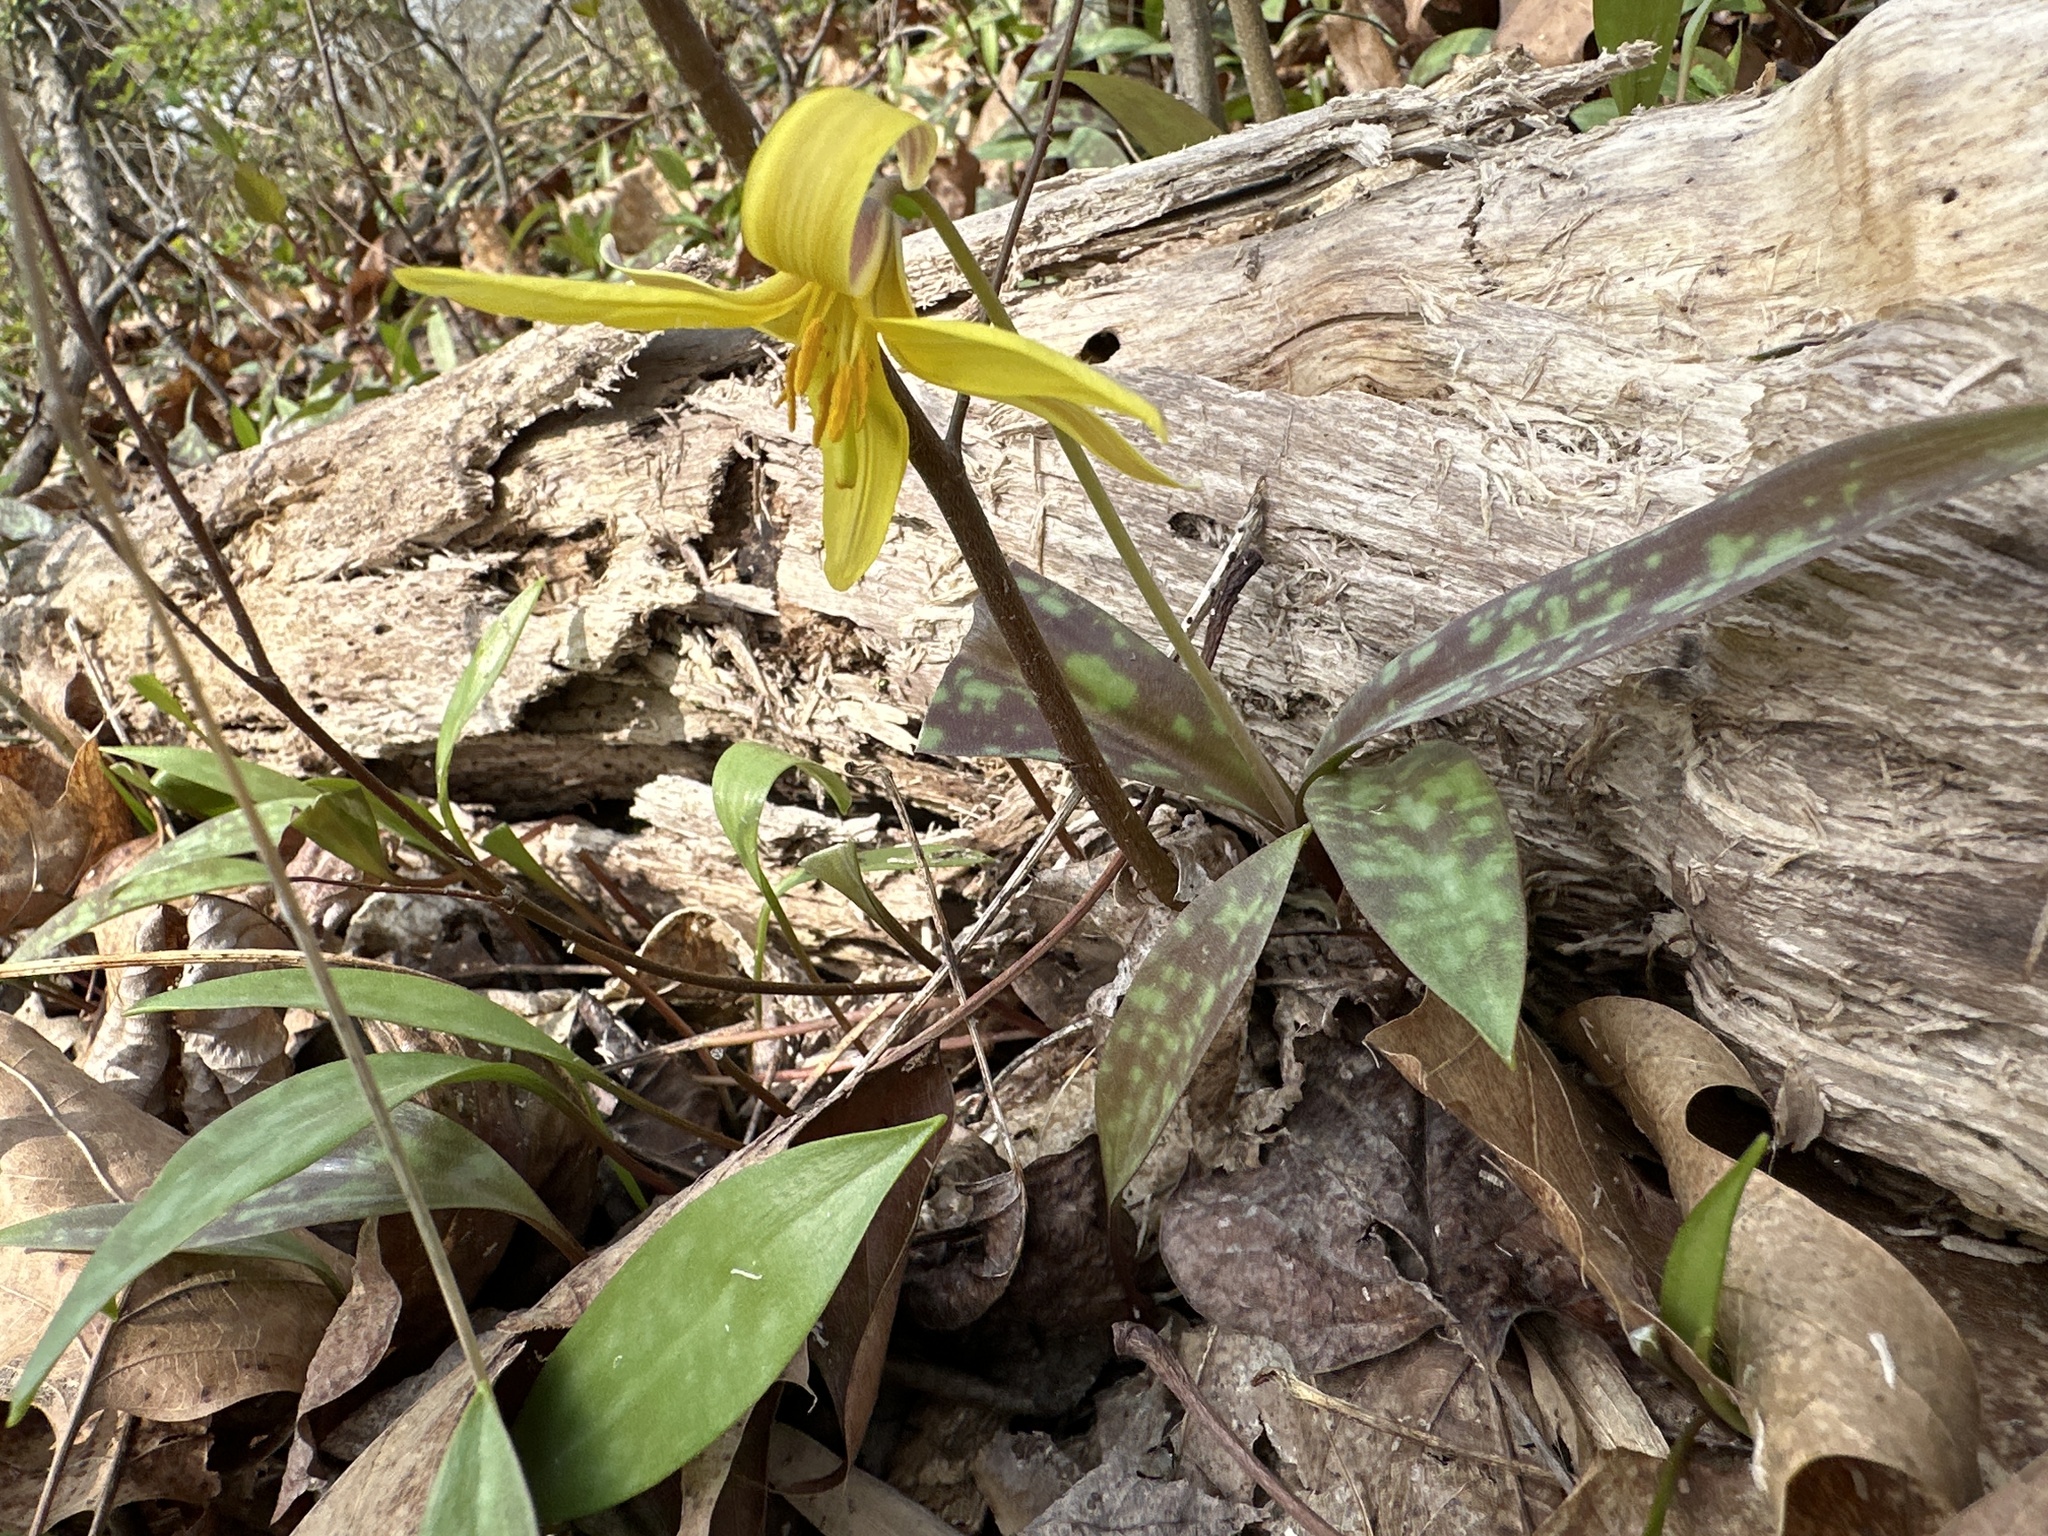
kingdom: Plantae
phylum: Tracheophyta
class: Liliopsida
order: Liliales
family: Liliaceae
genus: Erythronium
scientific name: Erythronium americanum
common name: Yellow adder's-tongue
